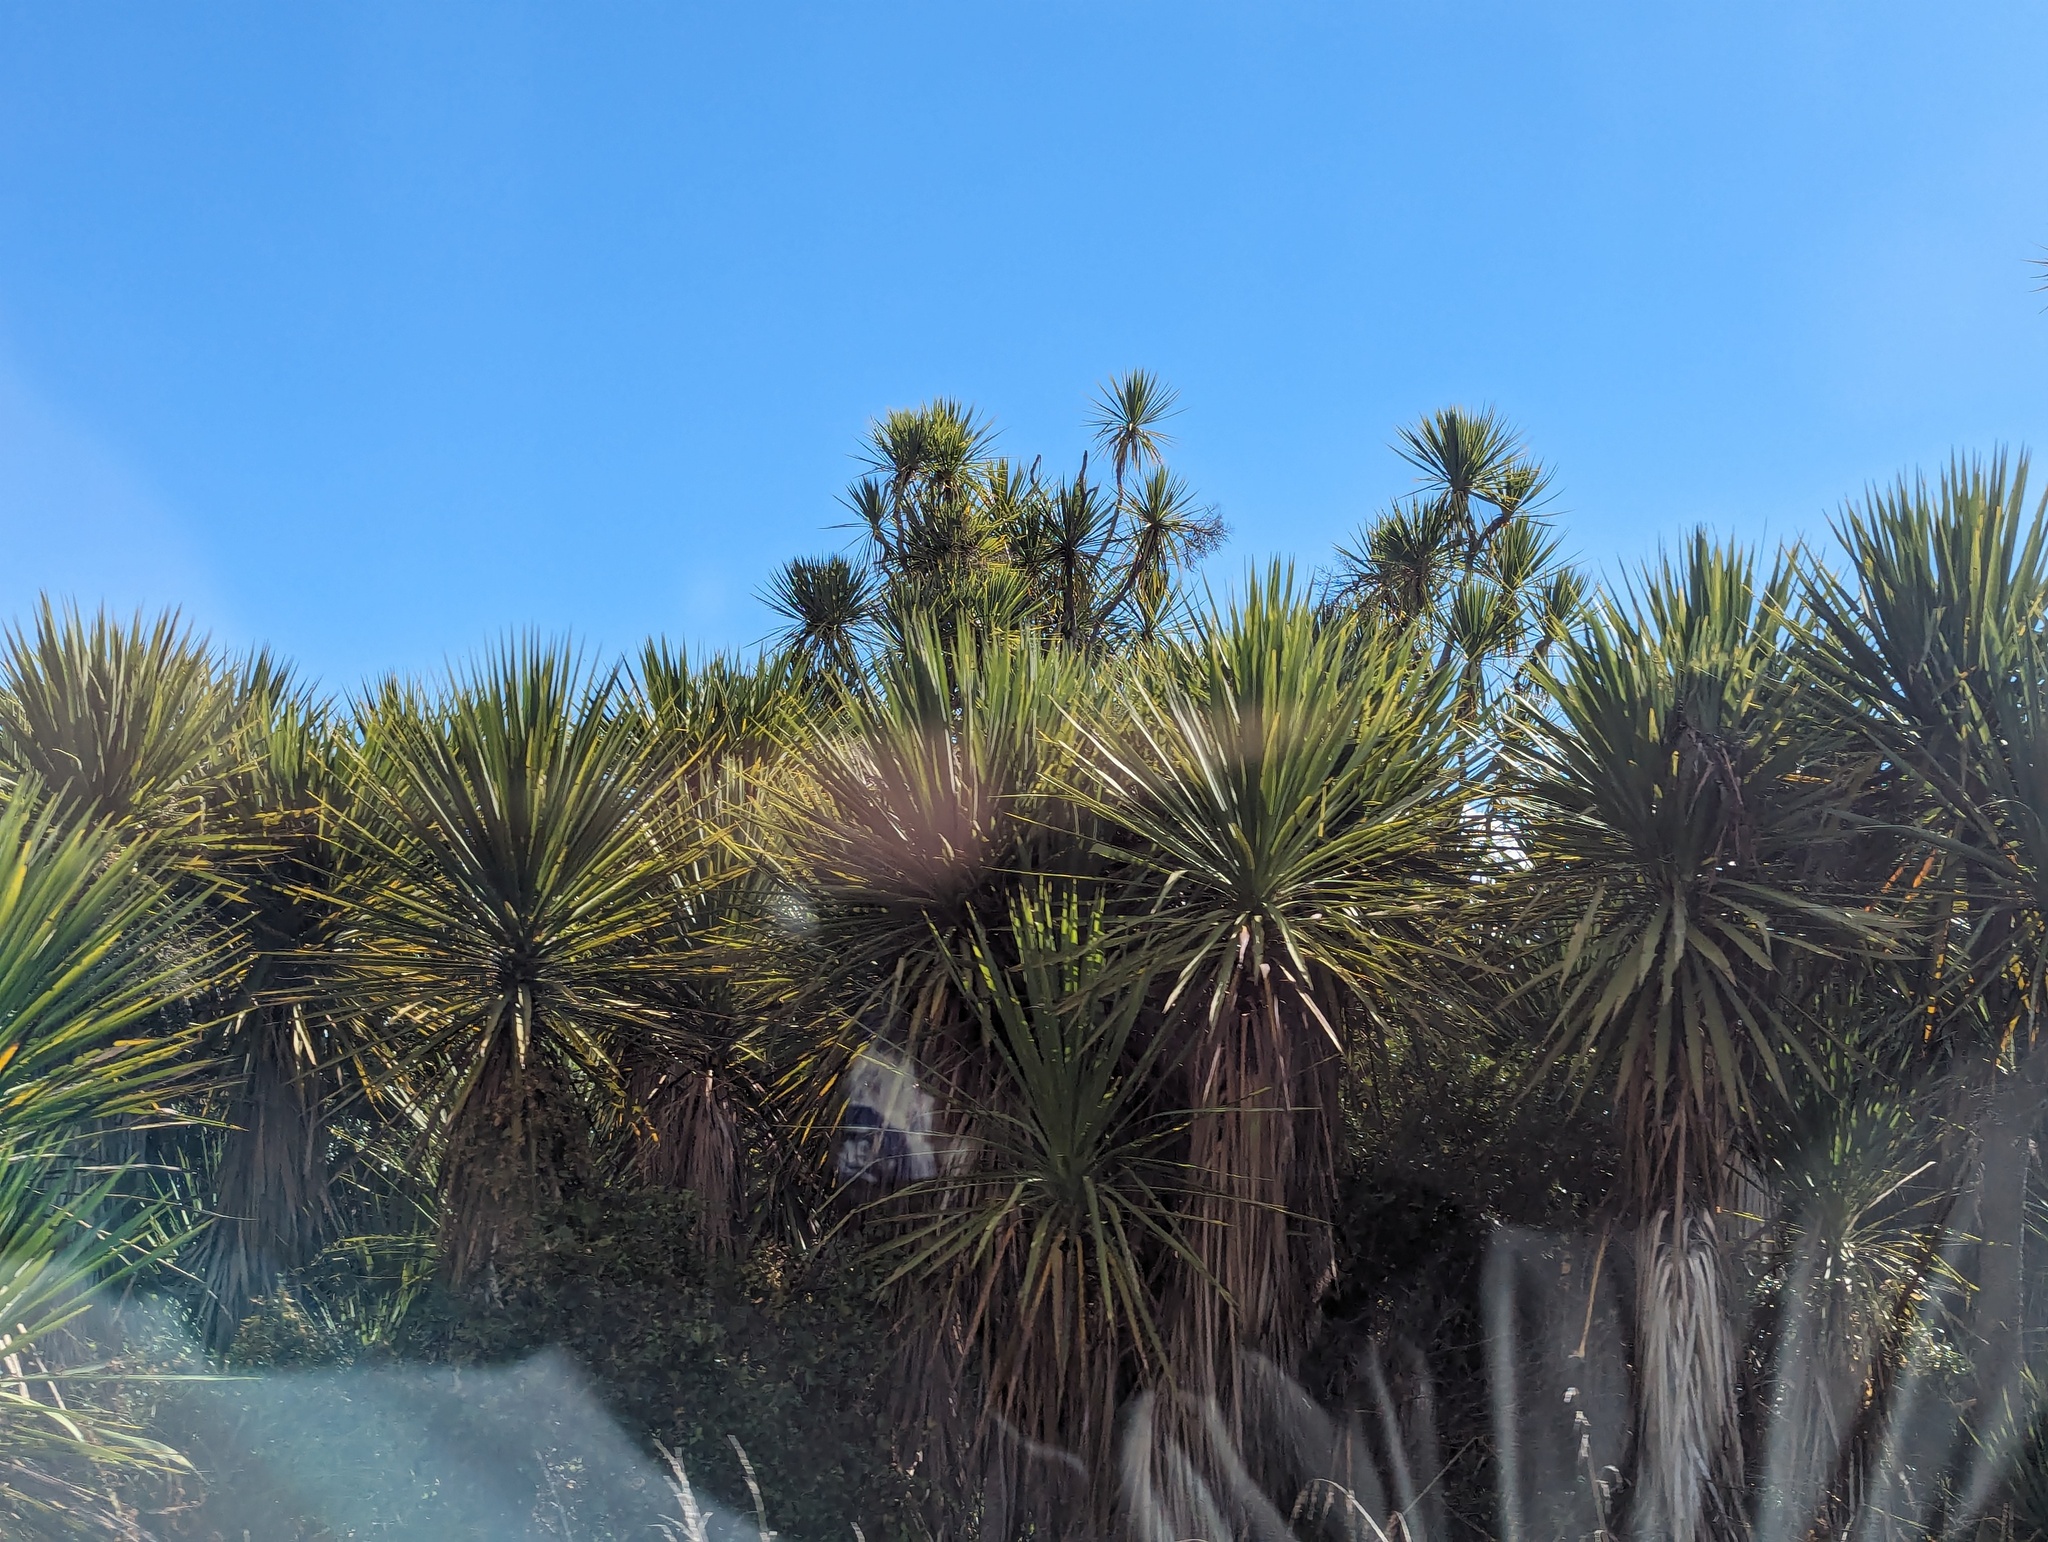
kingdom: Plantae
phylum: Tracheophyta
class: Liliopsida
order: Asparagales
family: Asparagaceae
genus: Cordyline
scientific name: Cordyline australis
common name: Cabbage-palm
